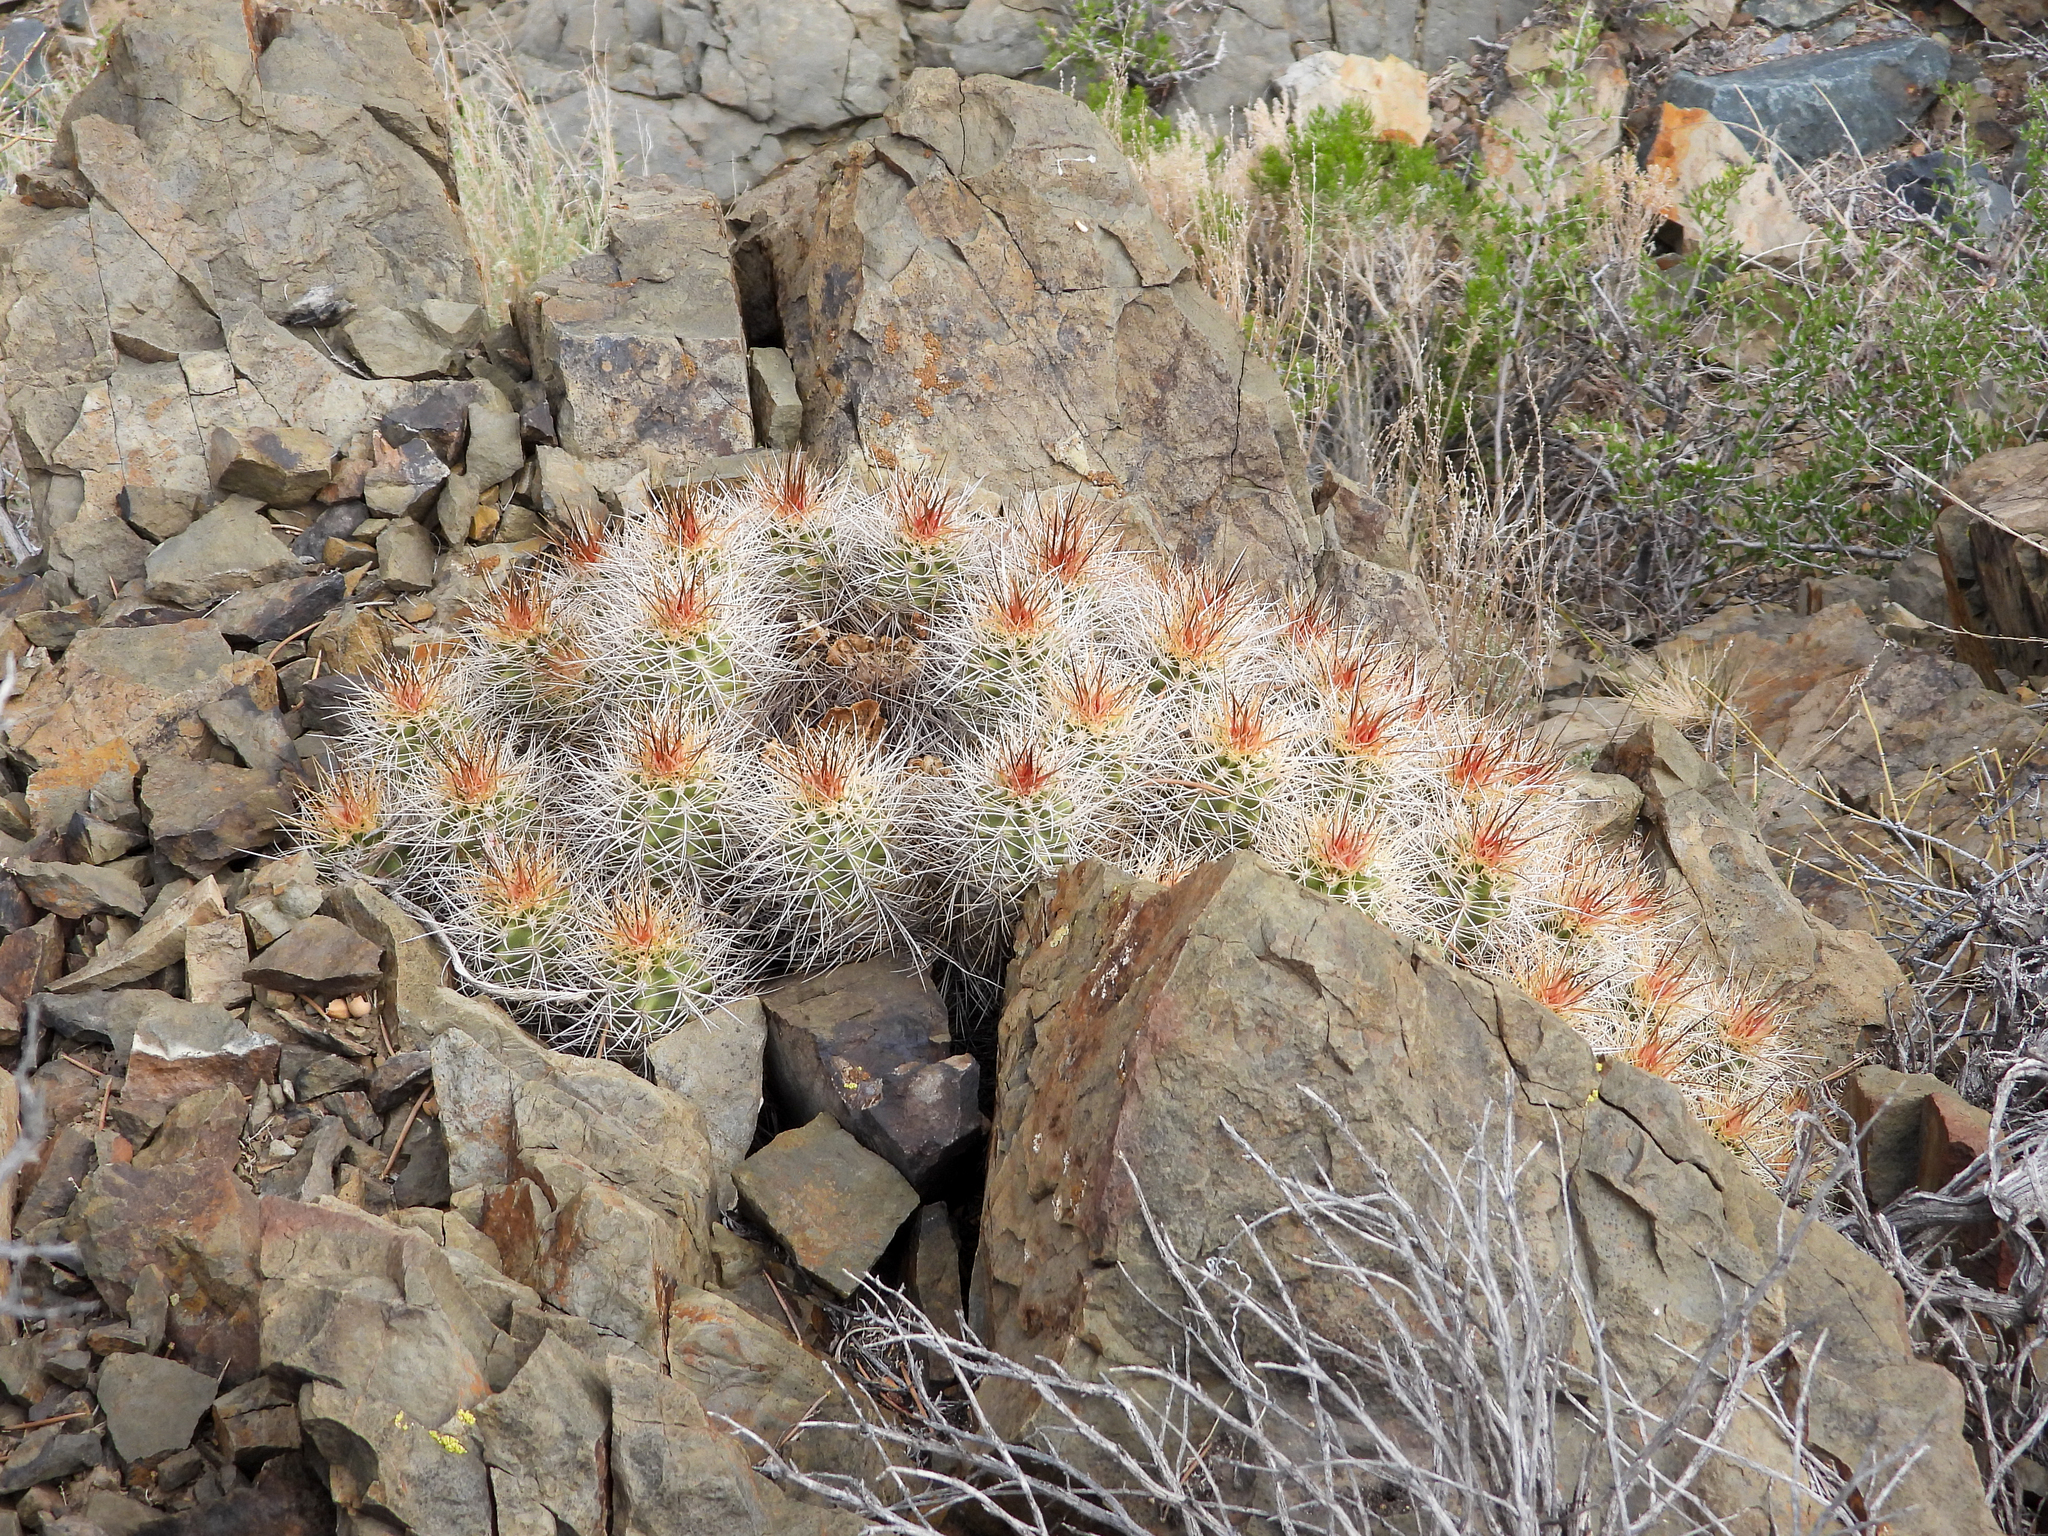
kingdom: Plantae
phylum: Tracheophyta
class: Magnoliopsida
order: Caryophyllales
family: Cactaceae
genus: Echinocereus
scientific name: Echinocereus triglochidiatus
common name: Claretcup hedgehog
